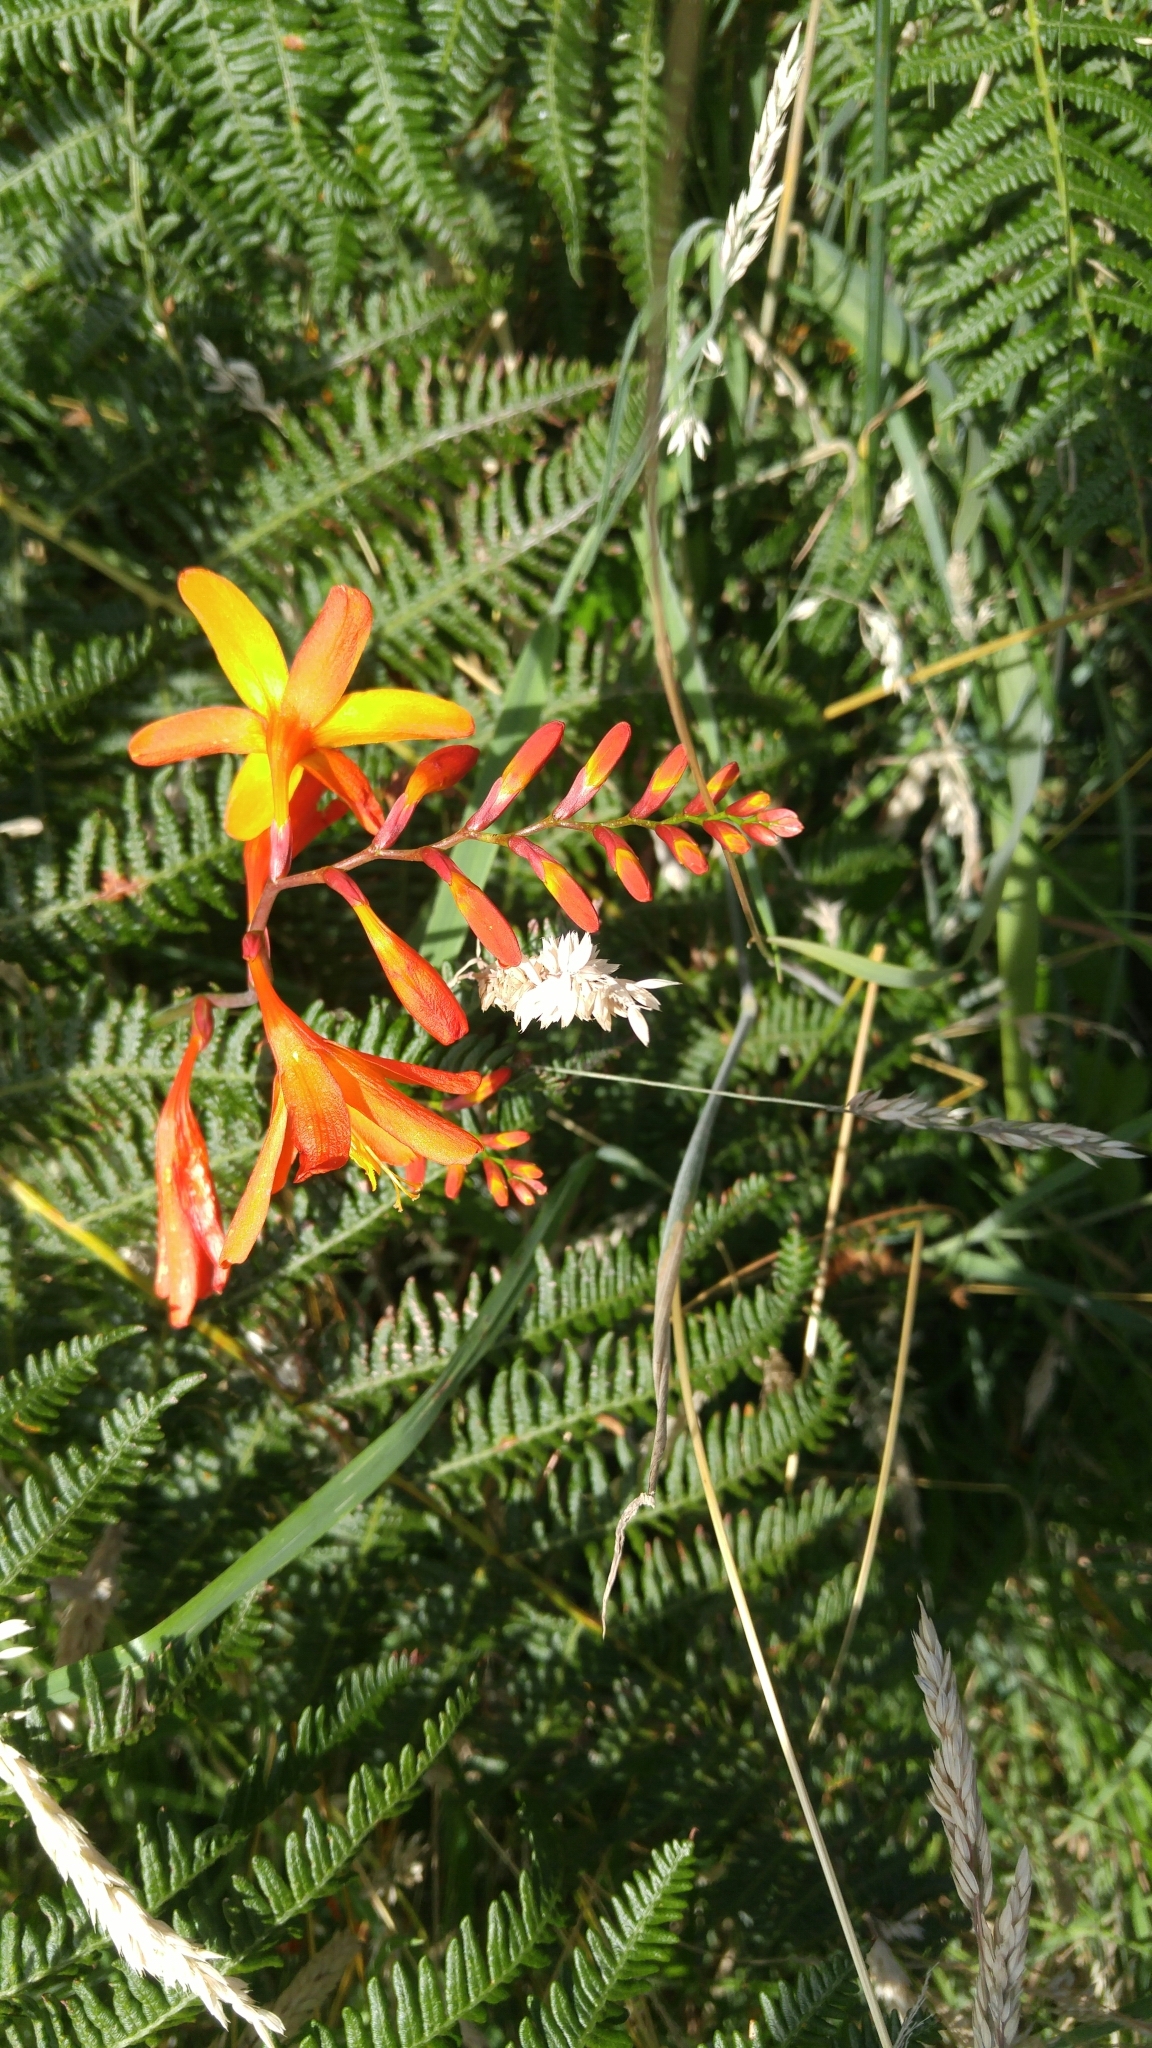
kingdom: Plantae
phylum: Tracheophyta
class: Liliopsida
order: Asparagales
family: Iridaceae
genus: Crocosmia
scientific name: Crocosmia crocosmiiflora
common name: Montbretia
